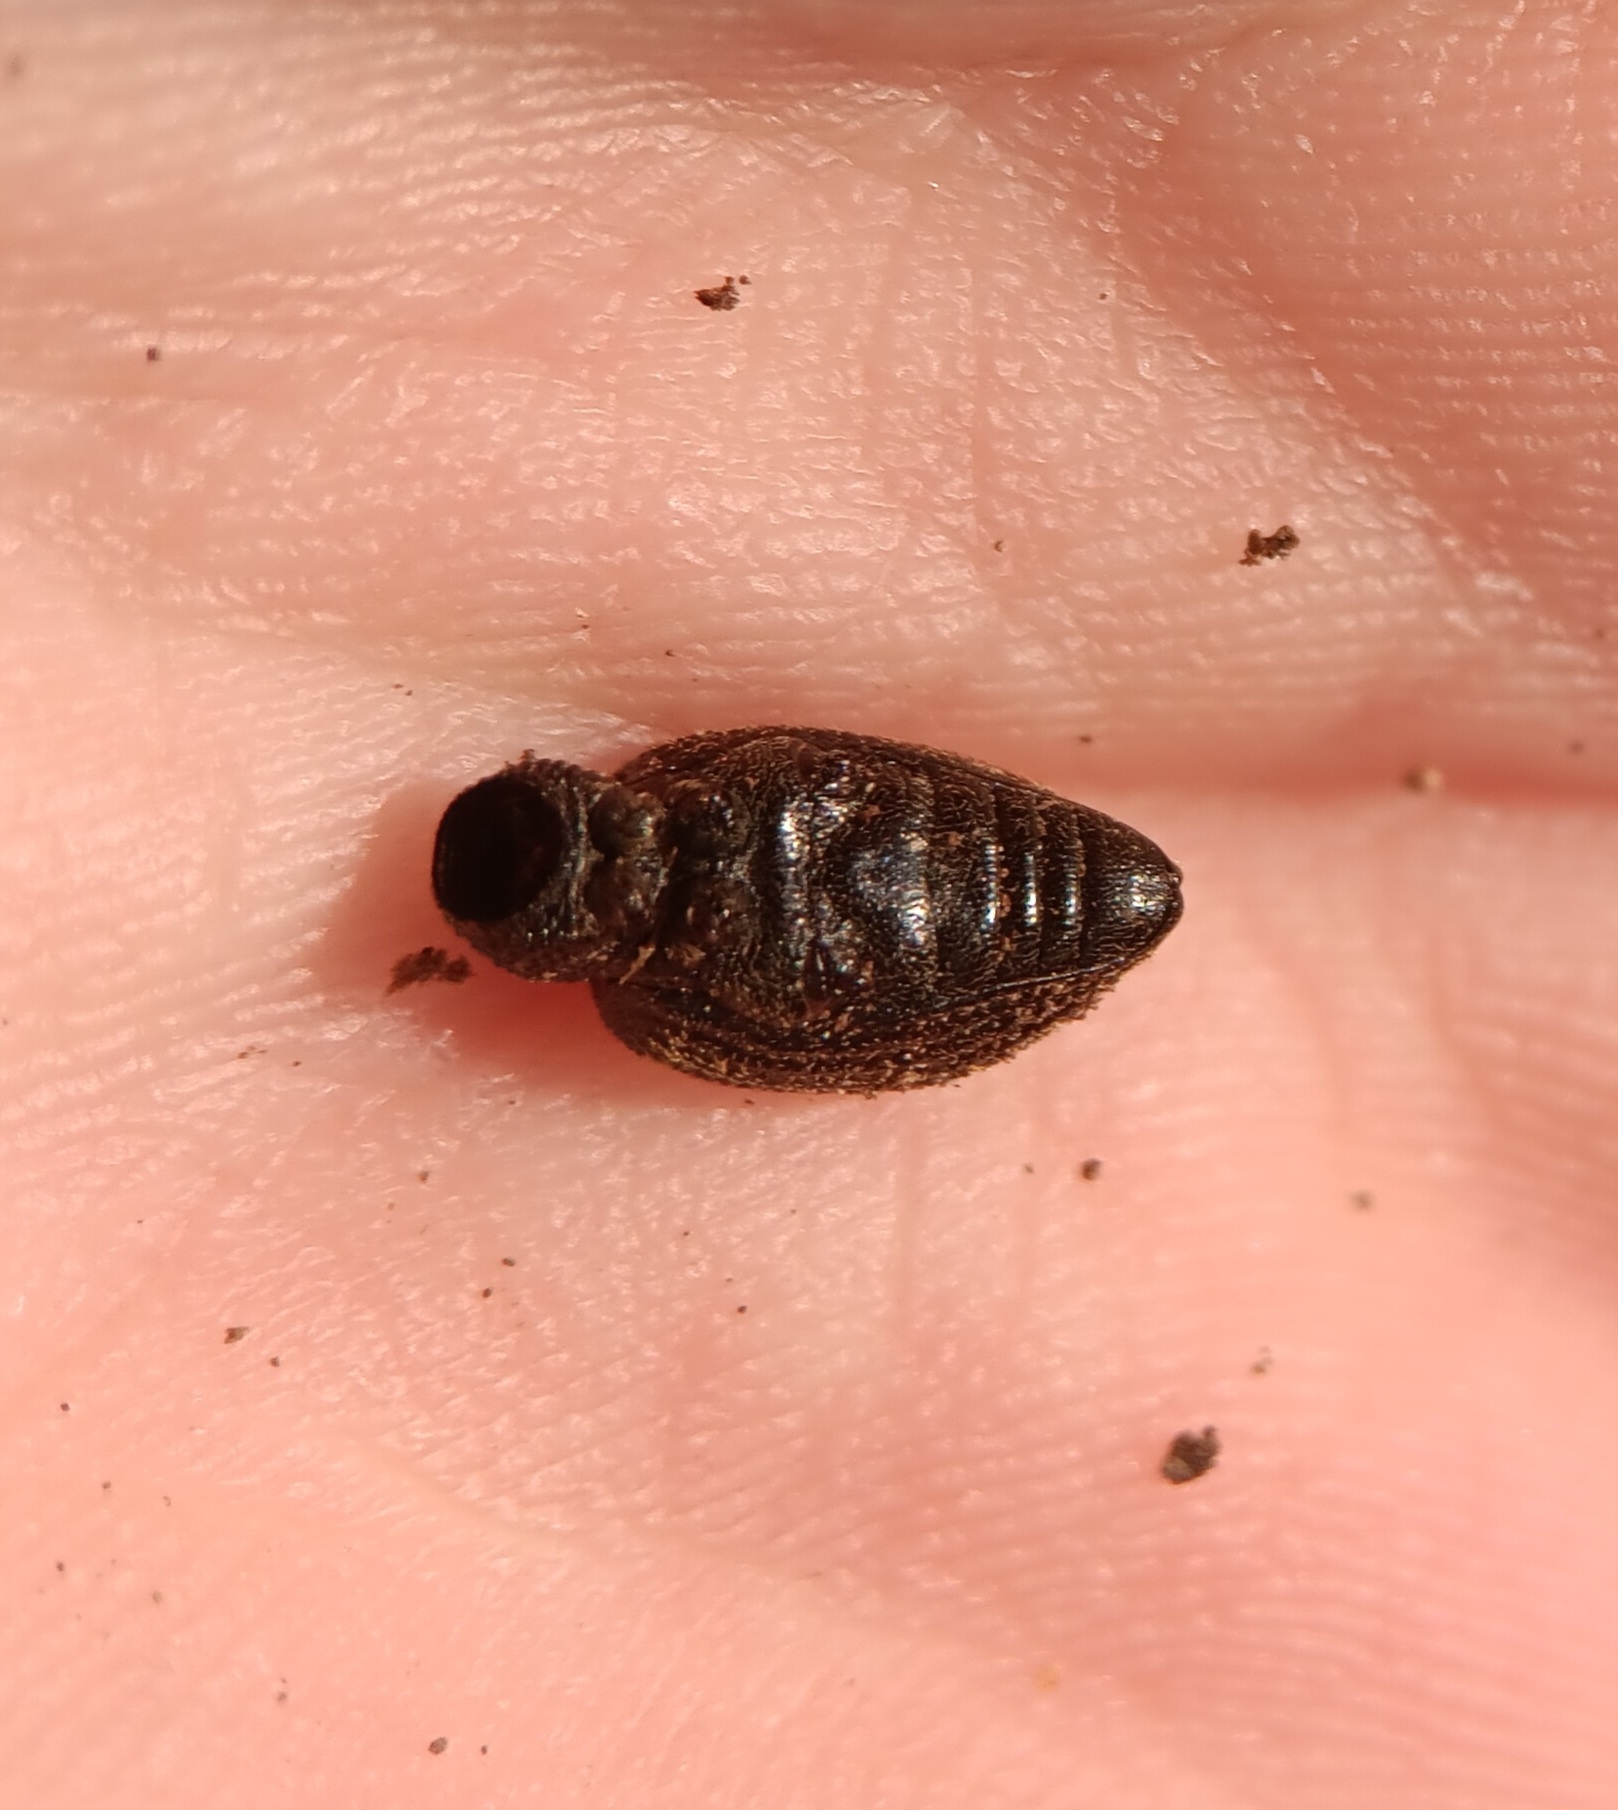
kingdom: Animalia
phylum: Arthropoda
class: Insecta
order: Coleoptera
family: Curculionidae
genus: Otiorhynchus
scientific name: Otiorhynchus sulcatus
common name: Black vine weevil
